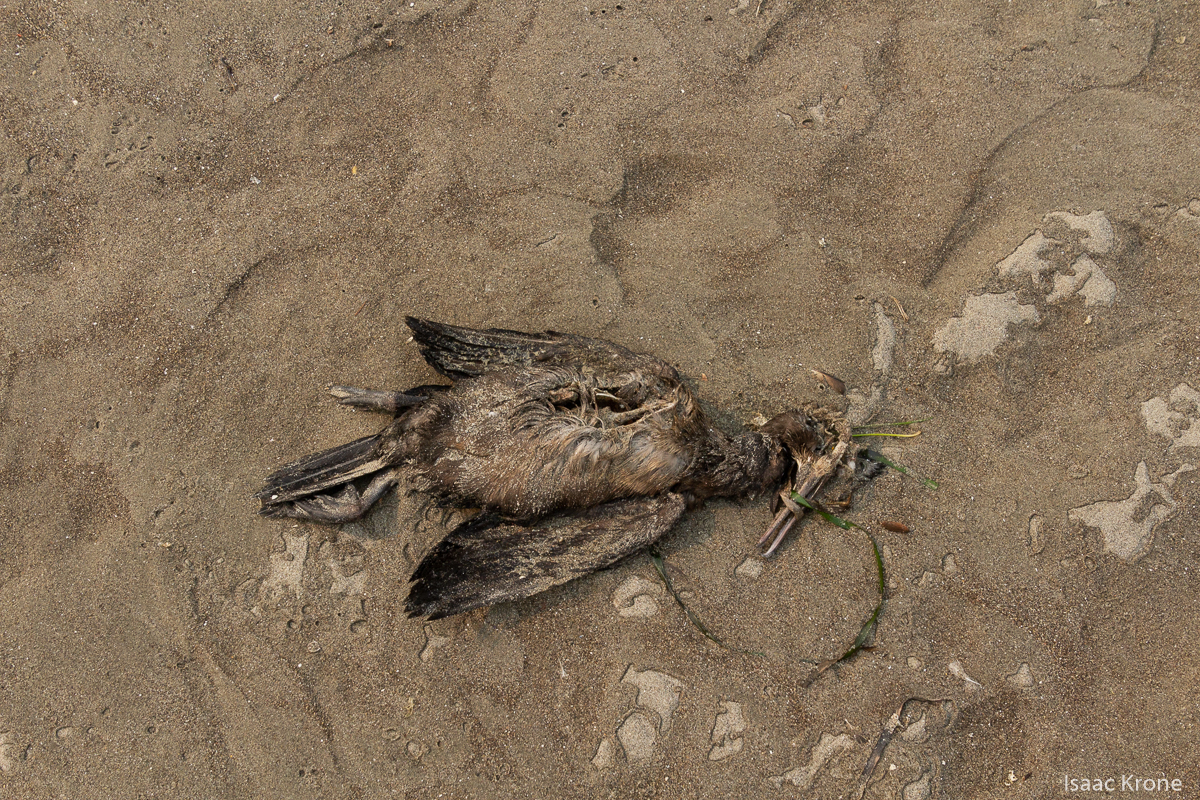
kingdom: Animalia
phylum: Chordata
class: Aves
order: Suliformes
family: Phalacrocoracidae
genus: Urile
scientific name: Urile penicillatus
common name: Brandt's cormorant
